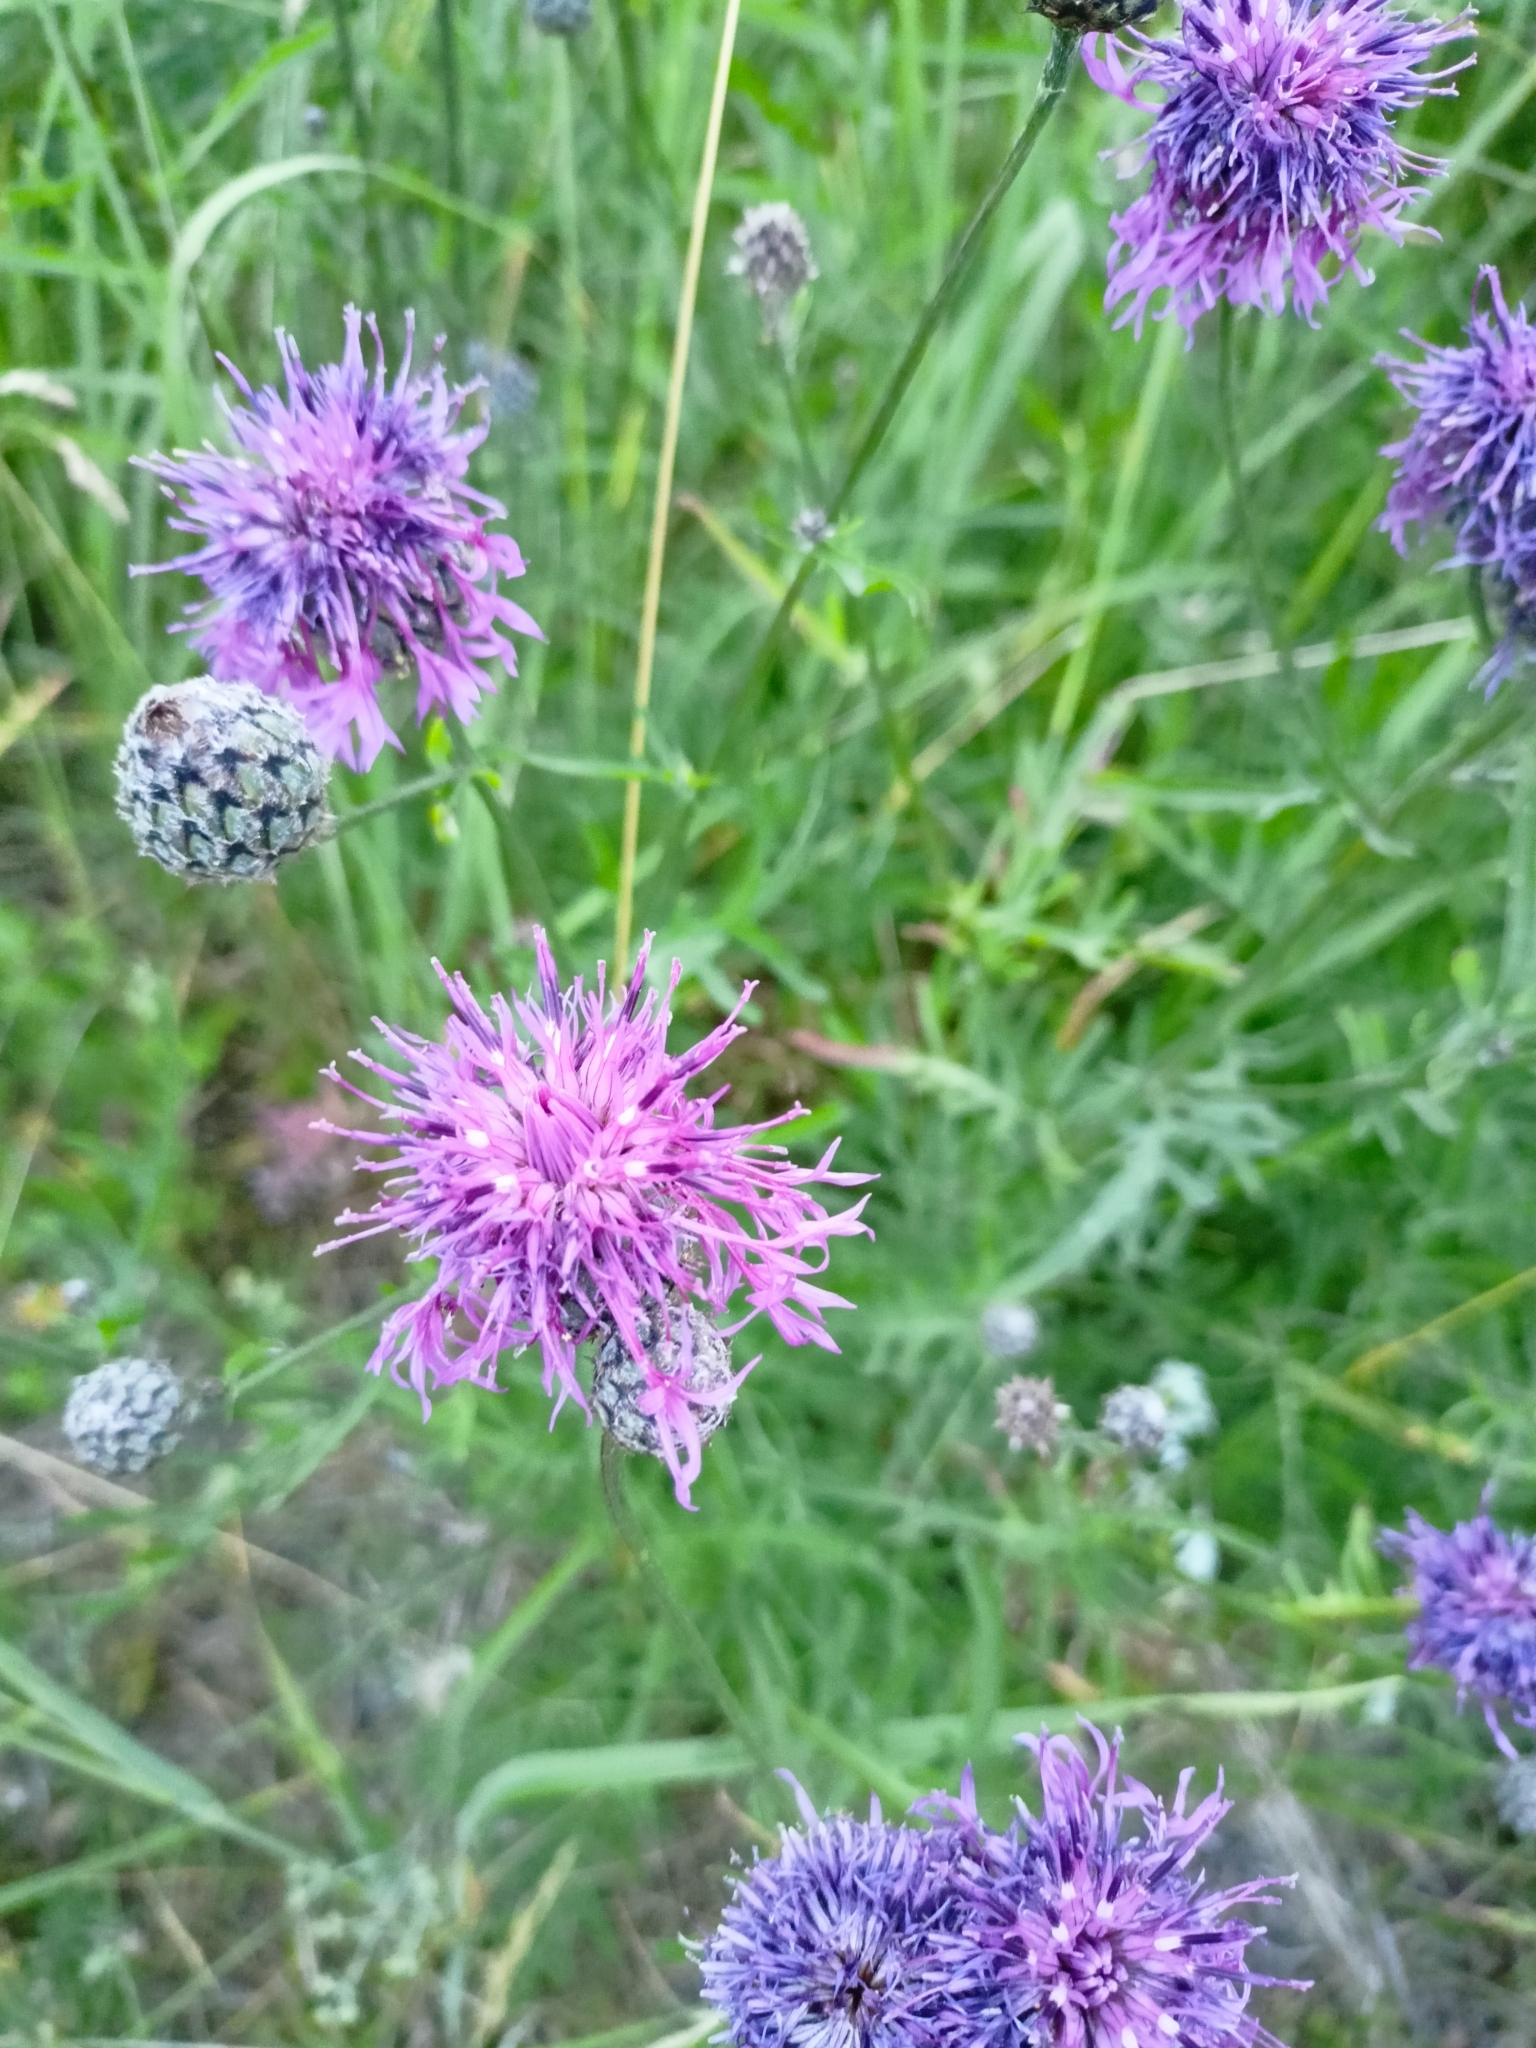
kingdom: Plantae
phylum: Tracheophyta
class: Magnoliopsida
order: Asterales
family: Asteraceae
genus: Centaurea
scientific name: Centaurea scabiosa
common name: Greater knapweed
